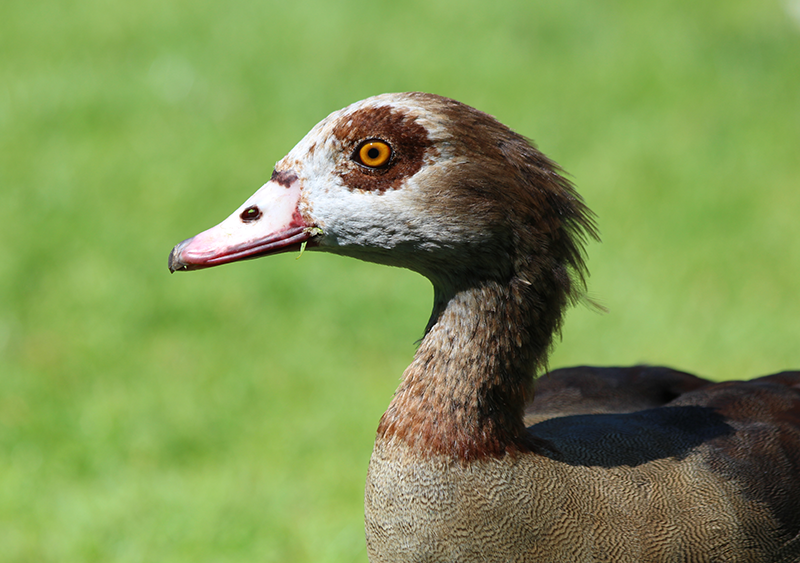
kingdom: Animalia
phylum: Chordata
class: Aves
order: Anseriformes
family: Anatidae
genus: Alopochen
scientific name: Alopochen aegyptiaca
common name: Egyptian goose
